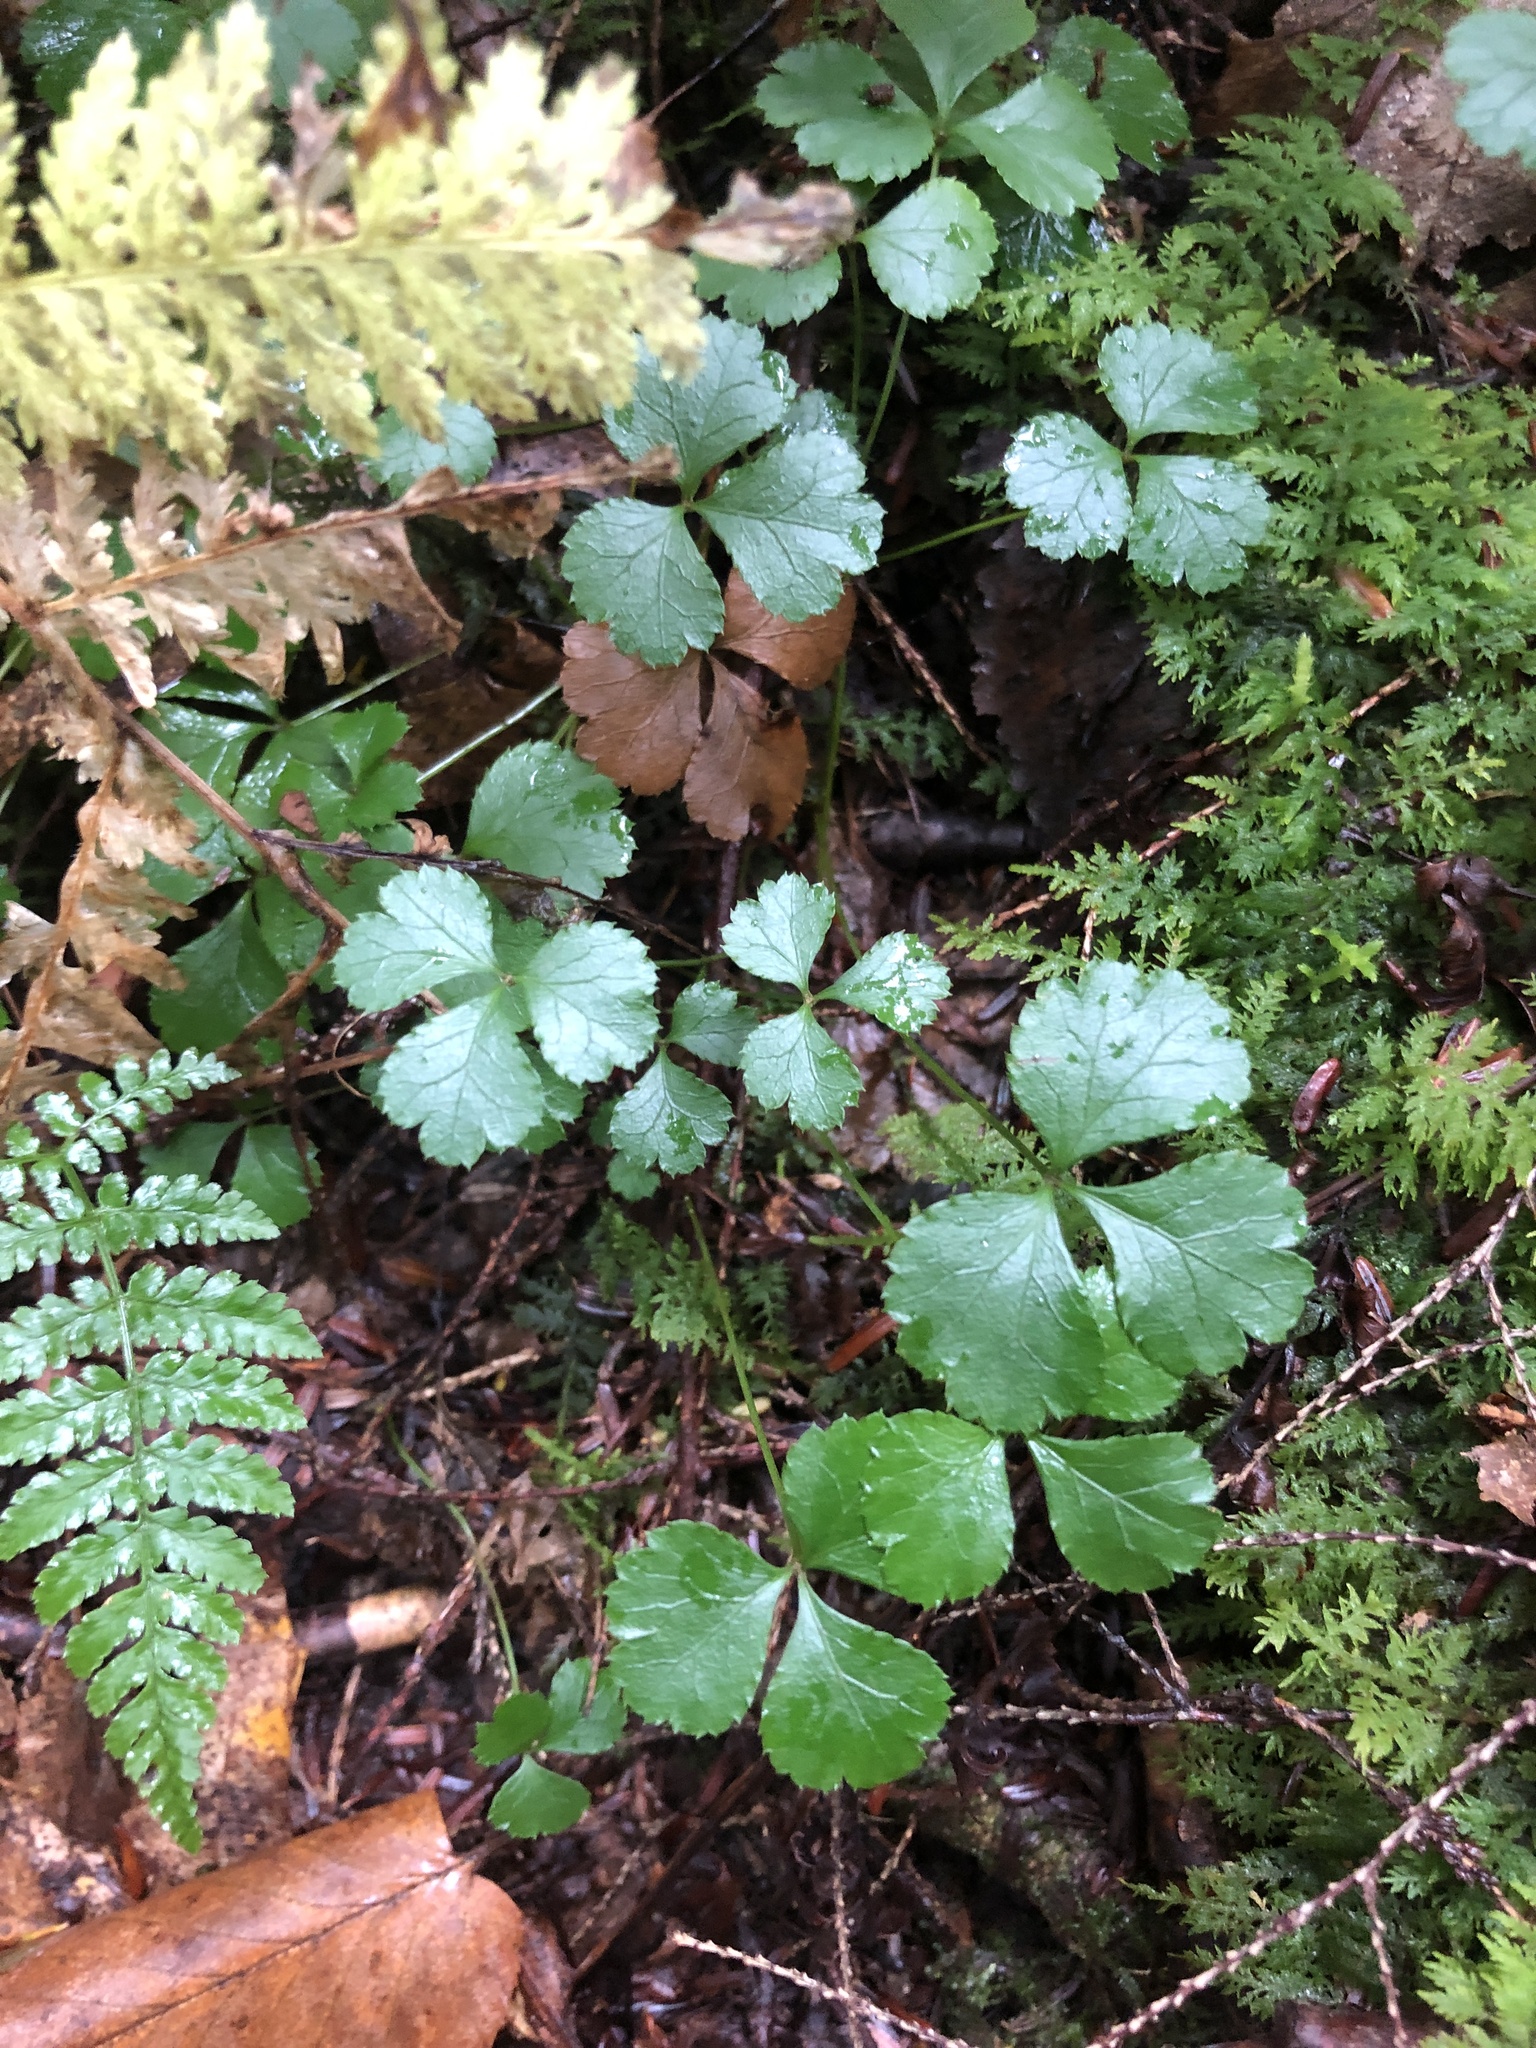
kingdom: Plantae
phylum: Tracheophyta
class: Magnoliopsida
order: Ranunculales
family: Ranunculaceae
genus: Coptis
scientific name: Coptis trifolia
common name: Canker-root
